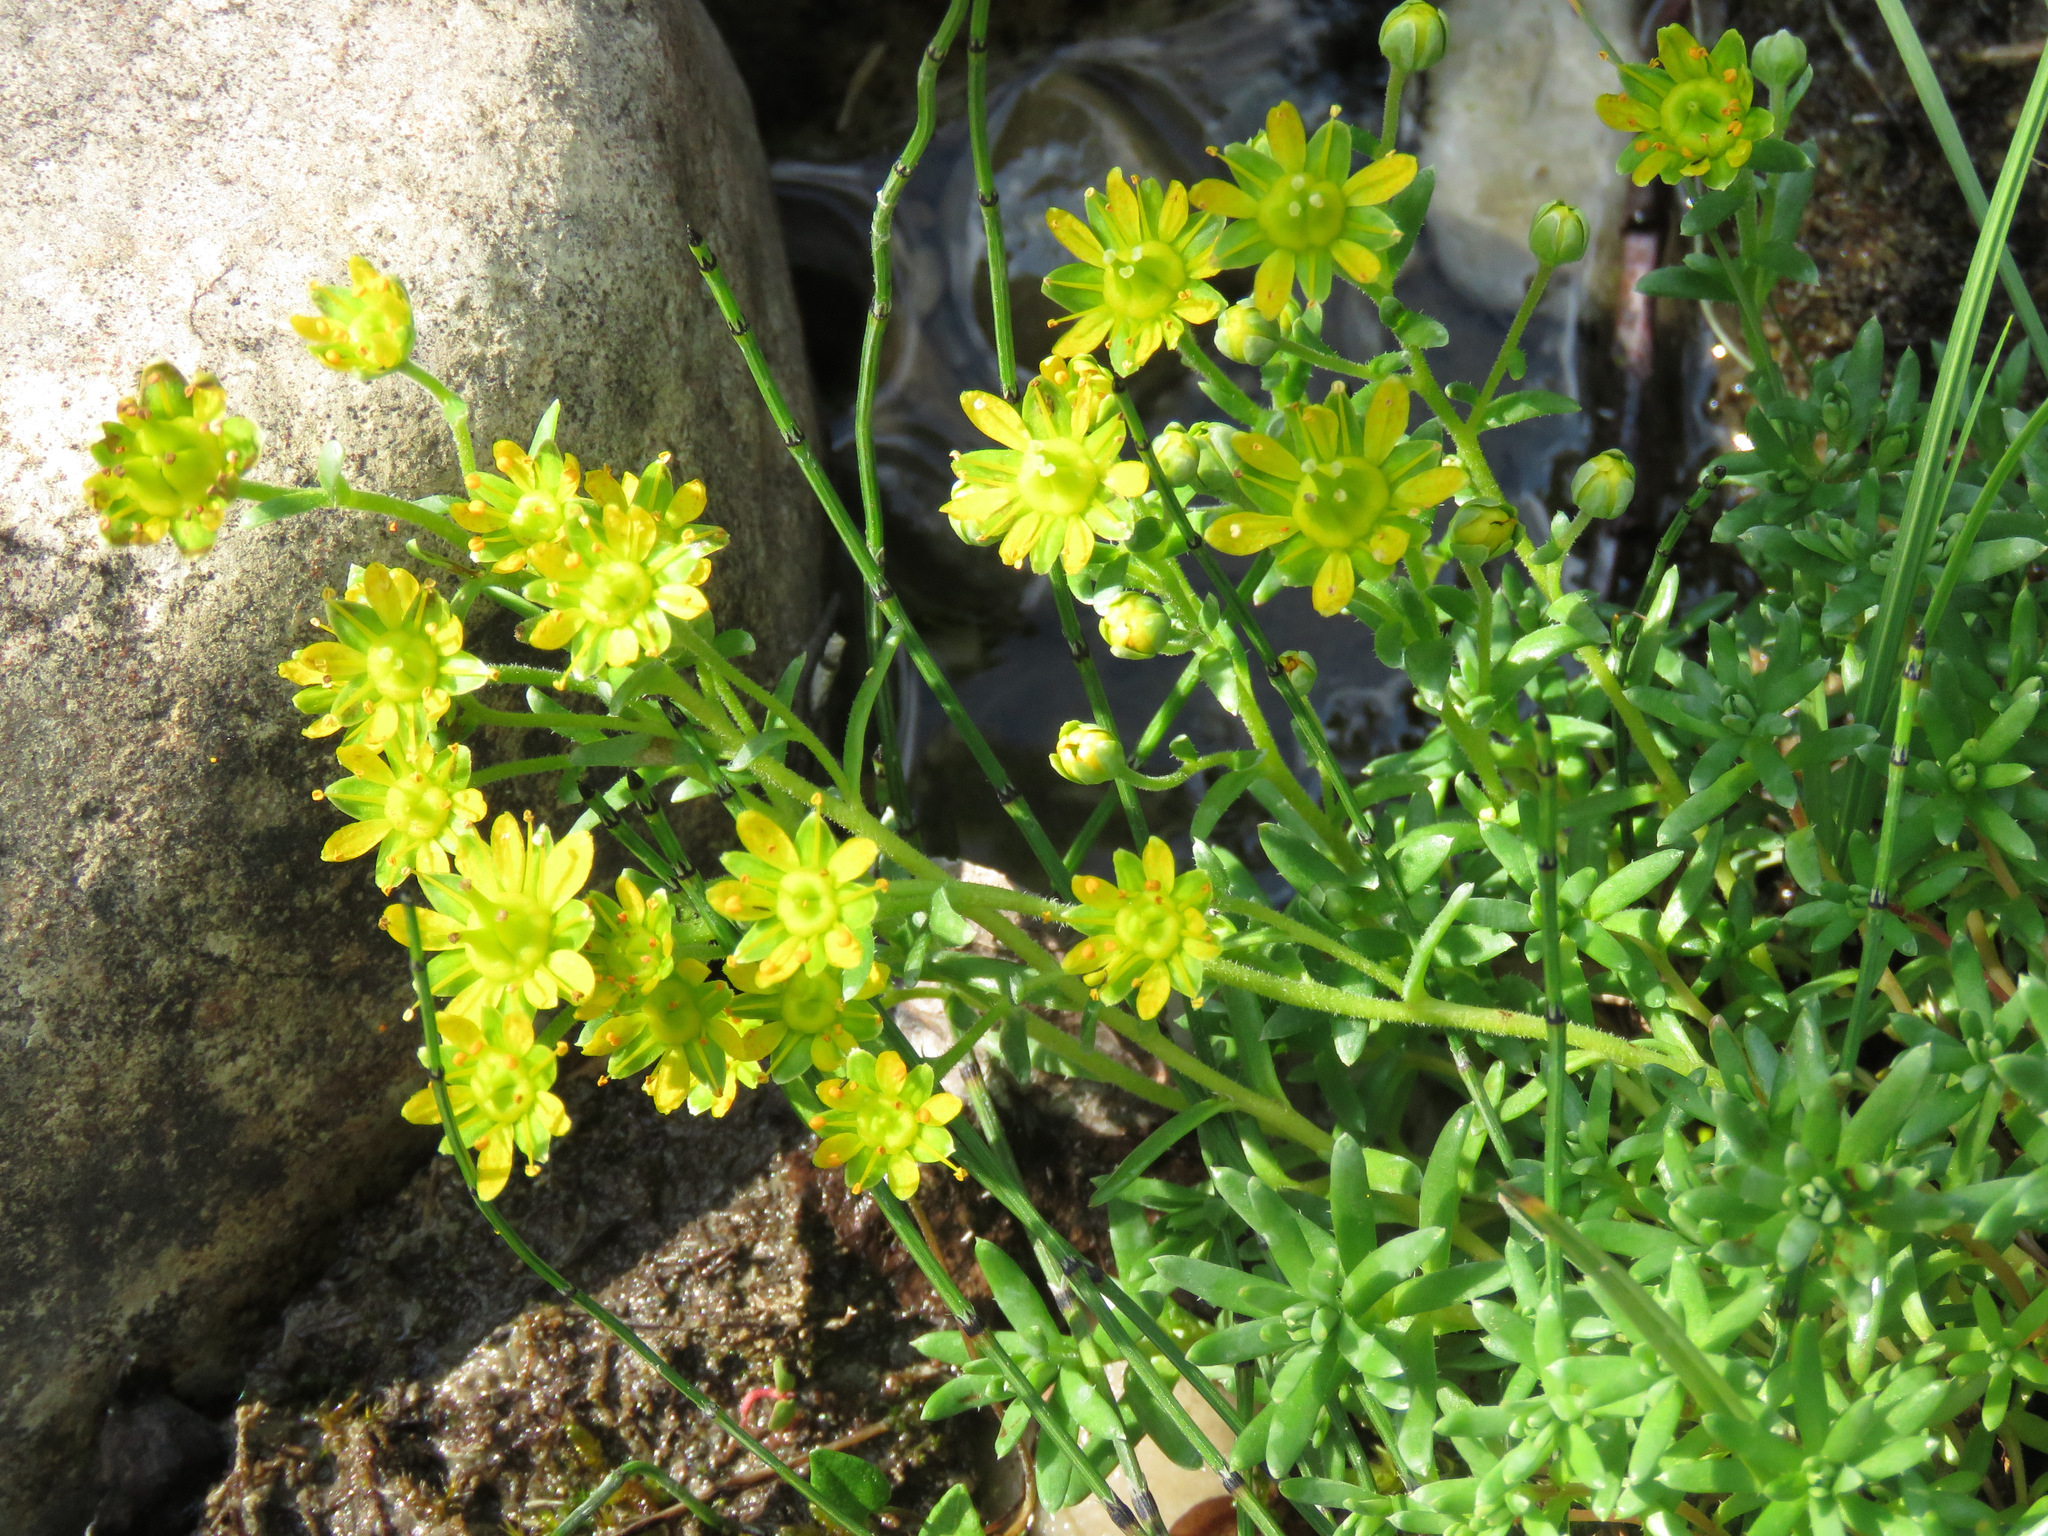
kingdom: Plantae
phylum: Tracheophyta
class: Magnoliopsida
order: Saxifragales
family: Saxifragaceae
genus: Saxifraga
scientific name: Saxifraga aizoides
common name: Yellow mountain saxifrage
